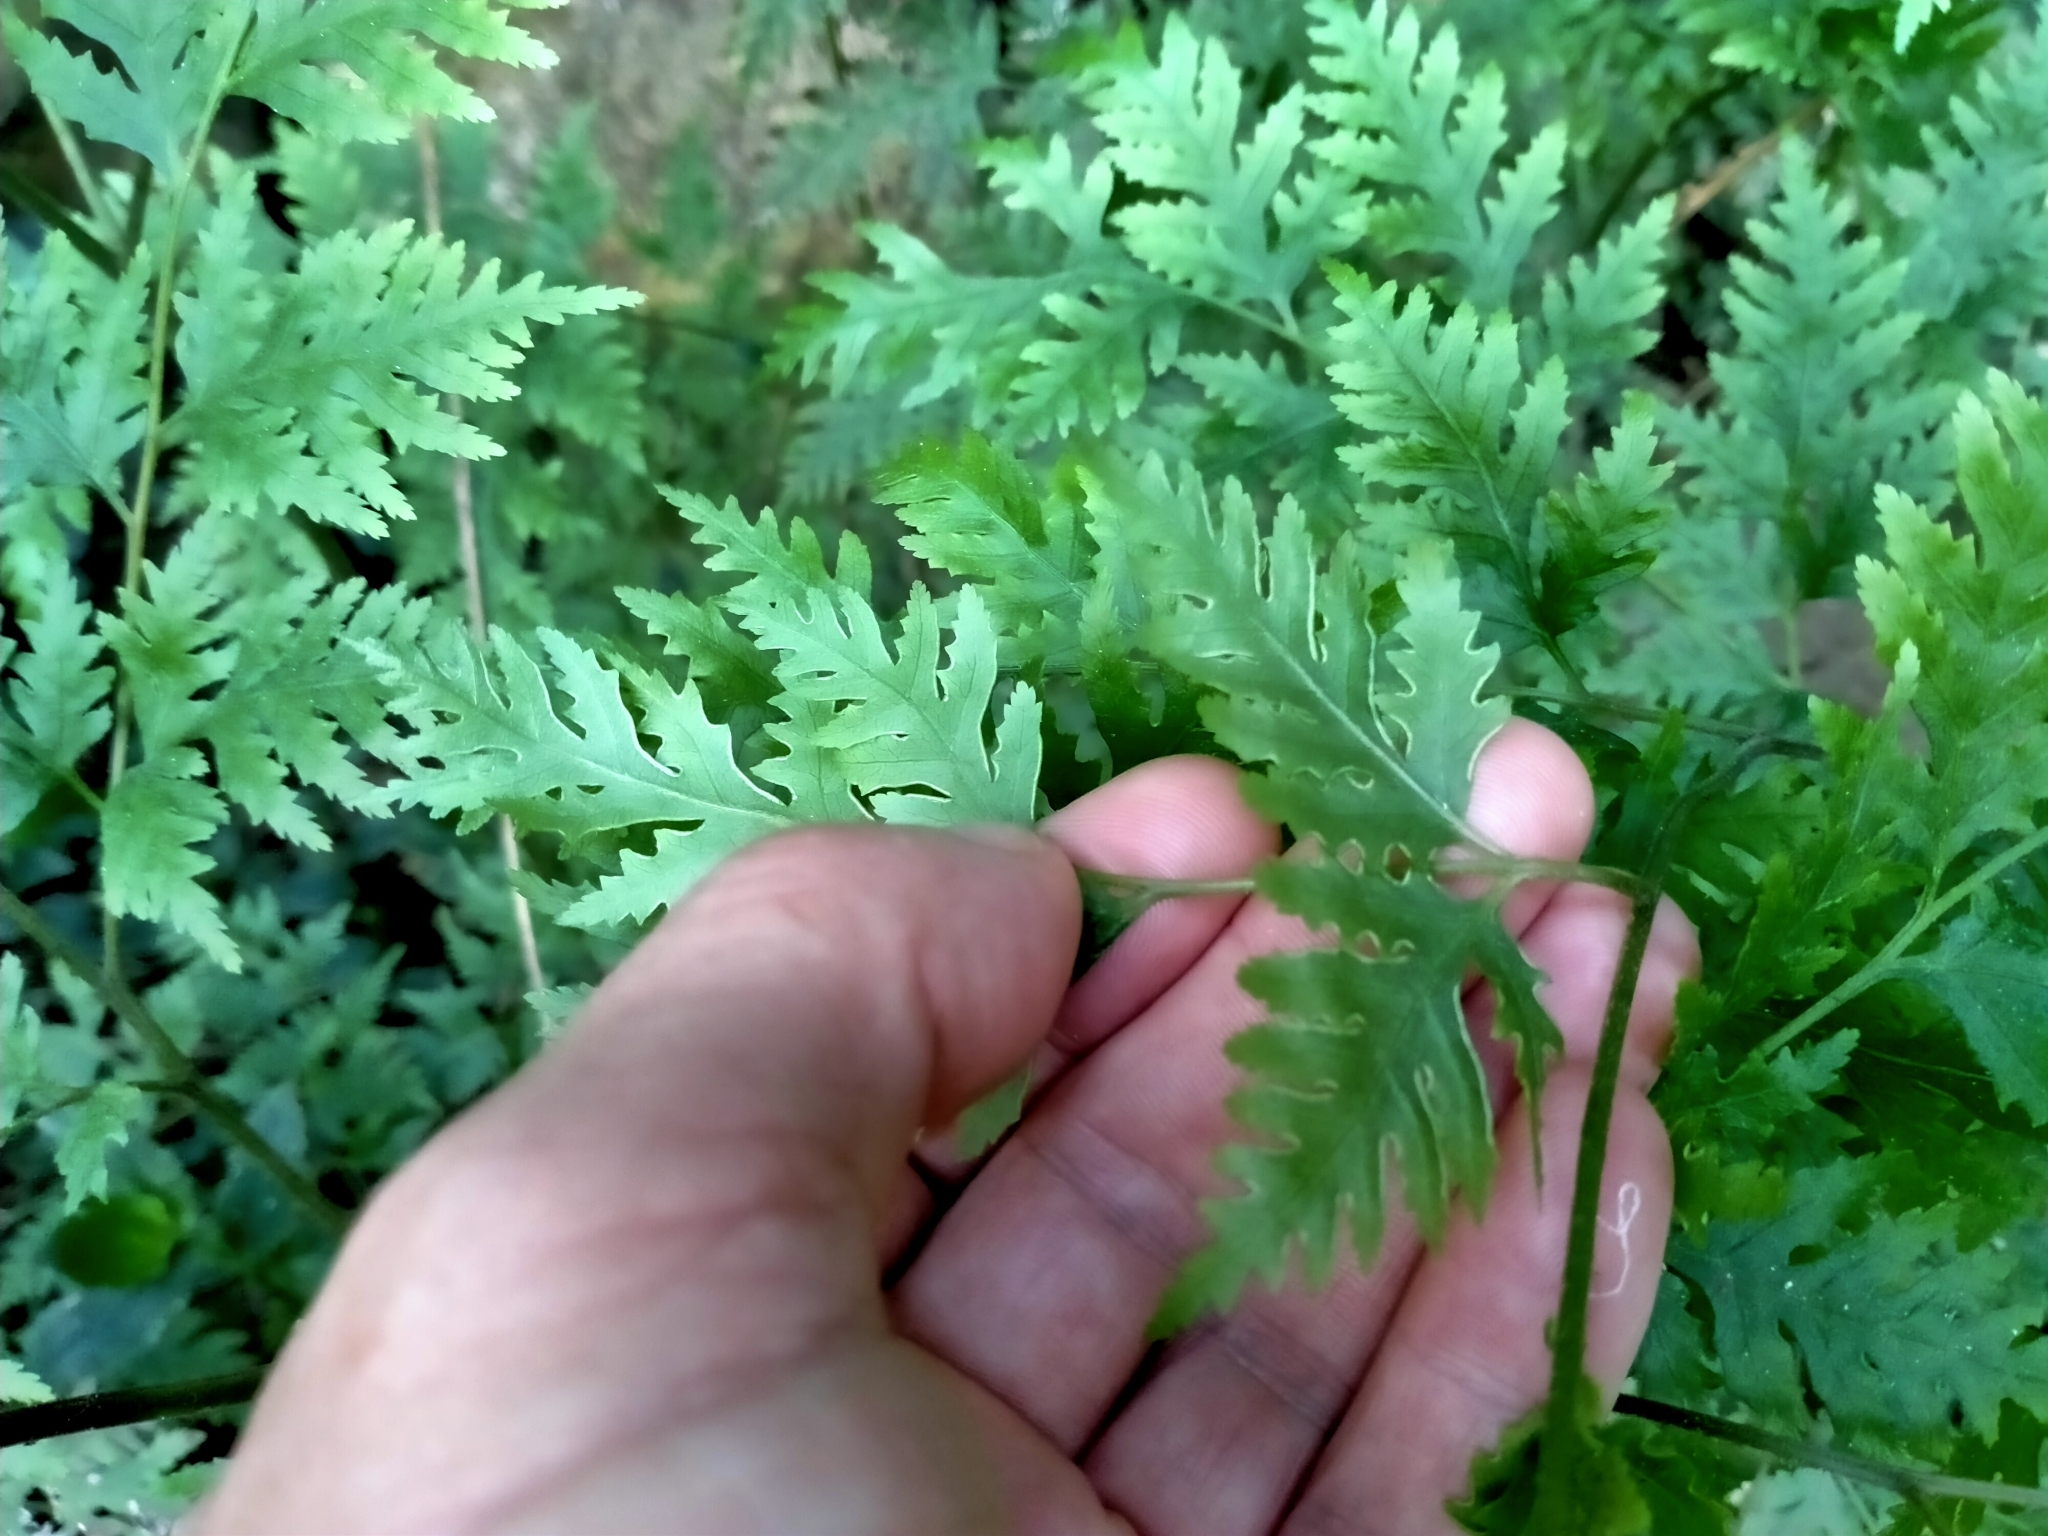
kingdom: Plantae
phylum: Tracheophyta
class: Polypodiopsida
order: Polypodiales
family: Pteridaceae
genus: Pteris
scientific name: Pteris macilenta
